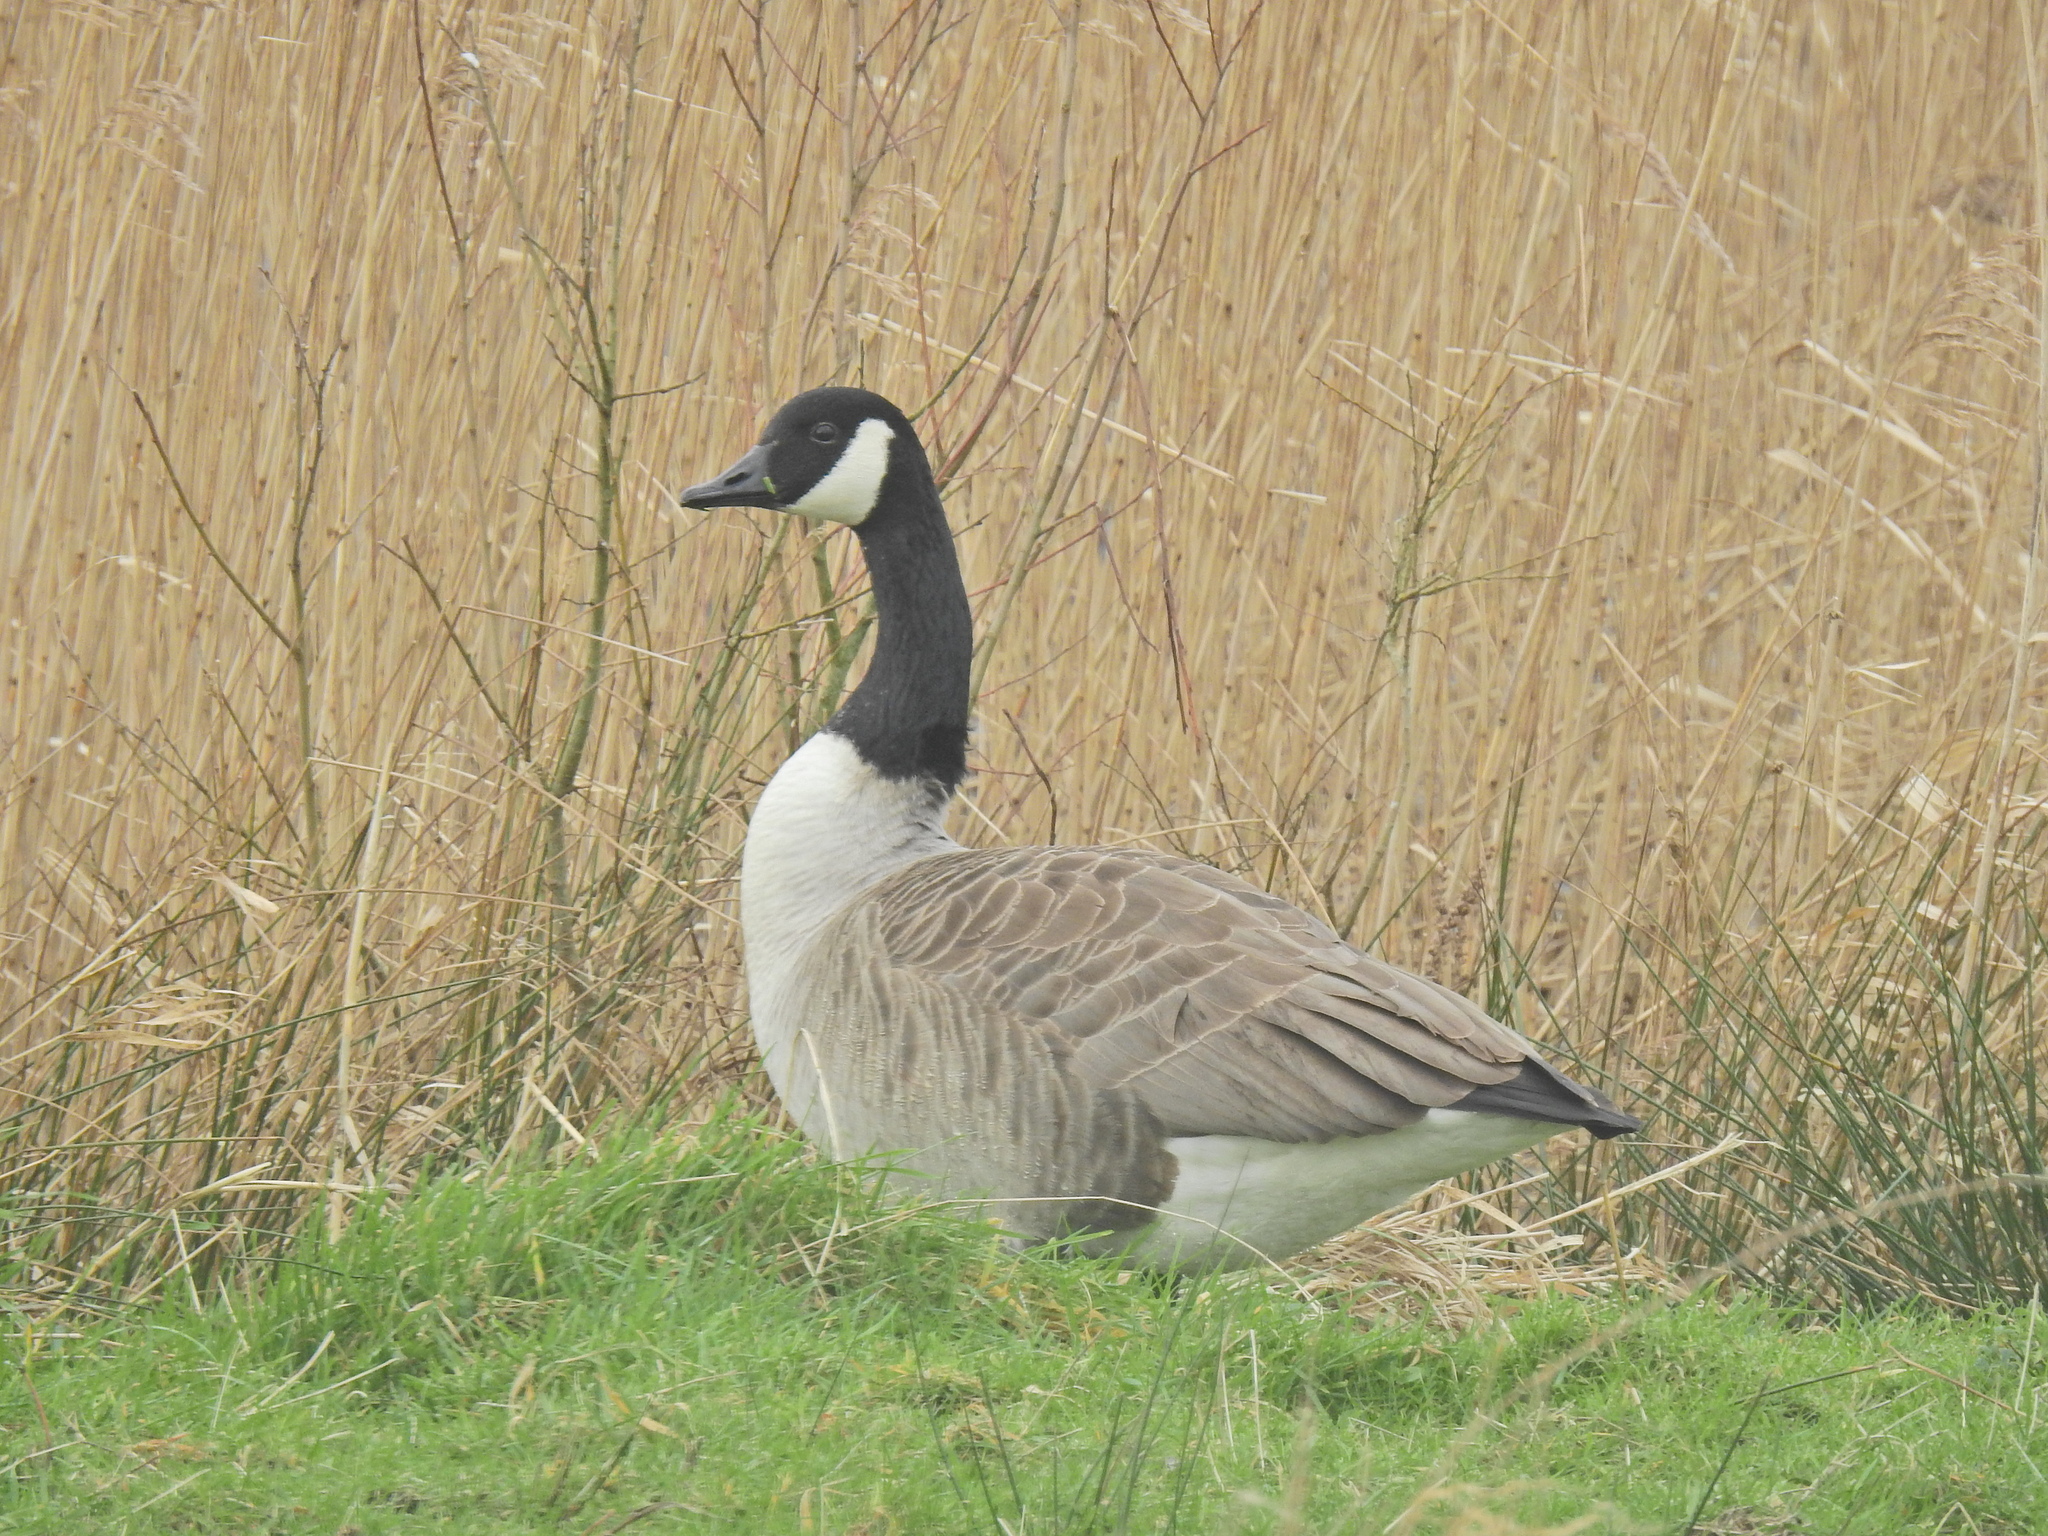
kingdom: Animalia
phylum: Chordata
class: Aves
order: Anseriformes
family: Anatidae
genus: Branta
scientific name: Branta canadensis
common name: Canada goose
